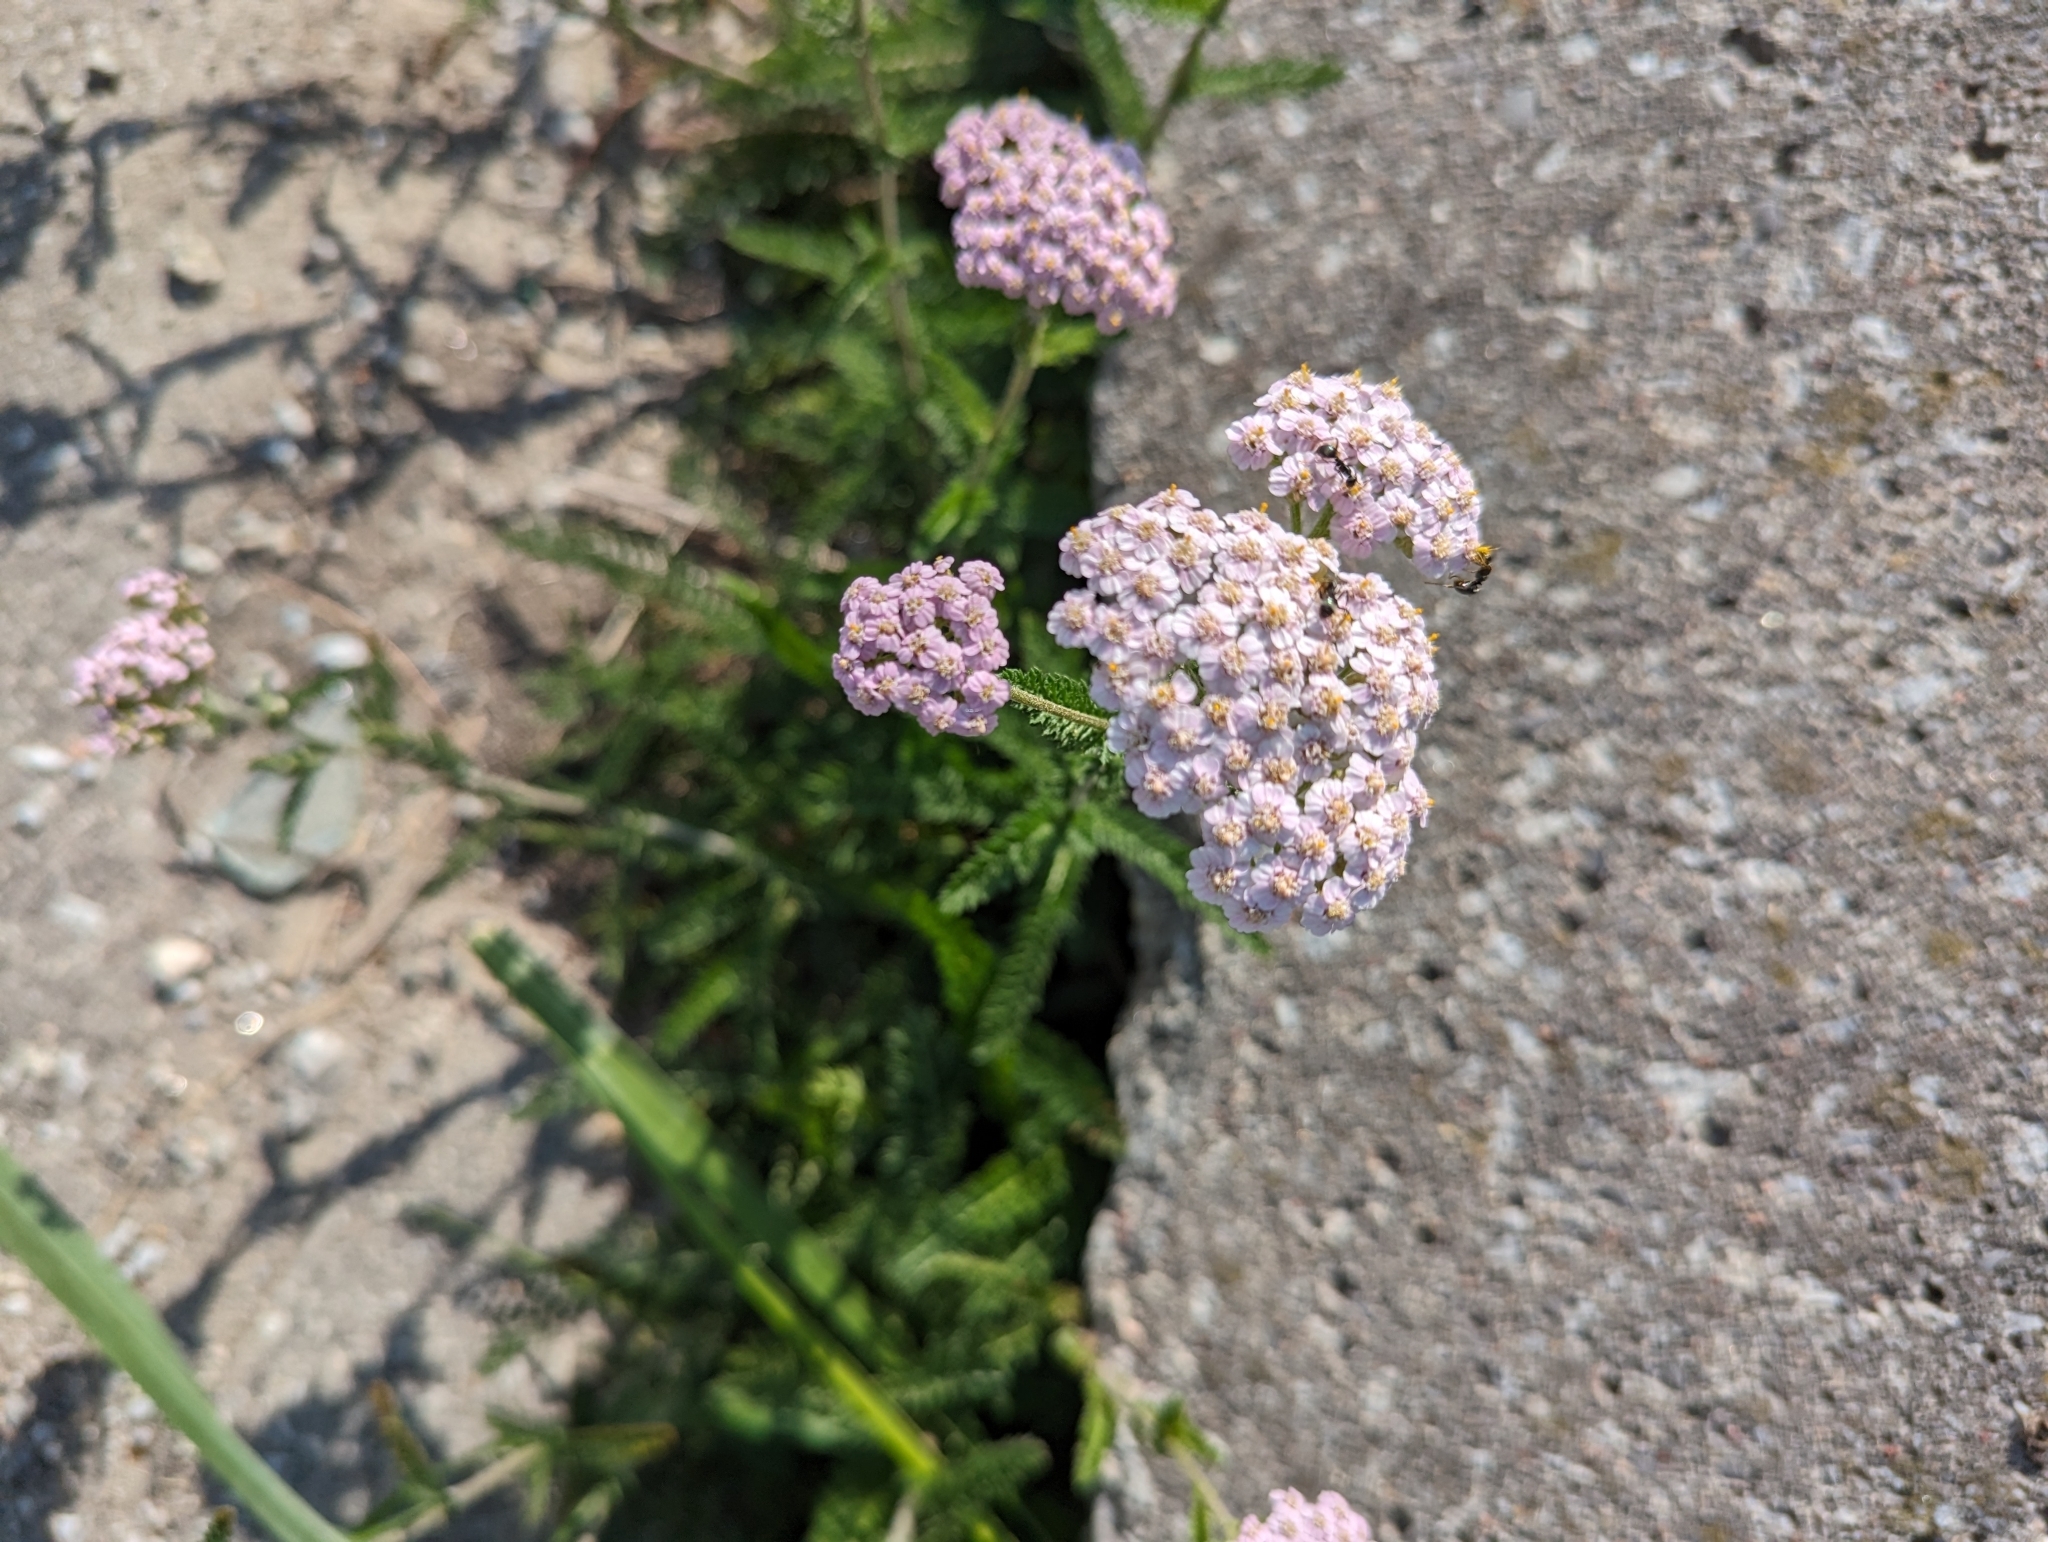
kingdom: Plantae
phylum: Tracheophyta
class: Magnoliopsida
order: Asterales
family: Asteraceae
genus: Achillea
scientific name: Achillea millefolium
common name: Yarrow
